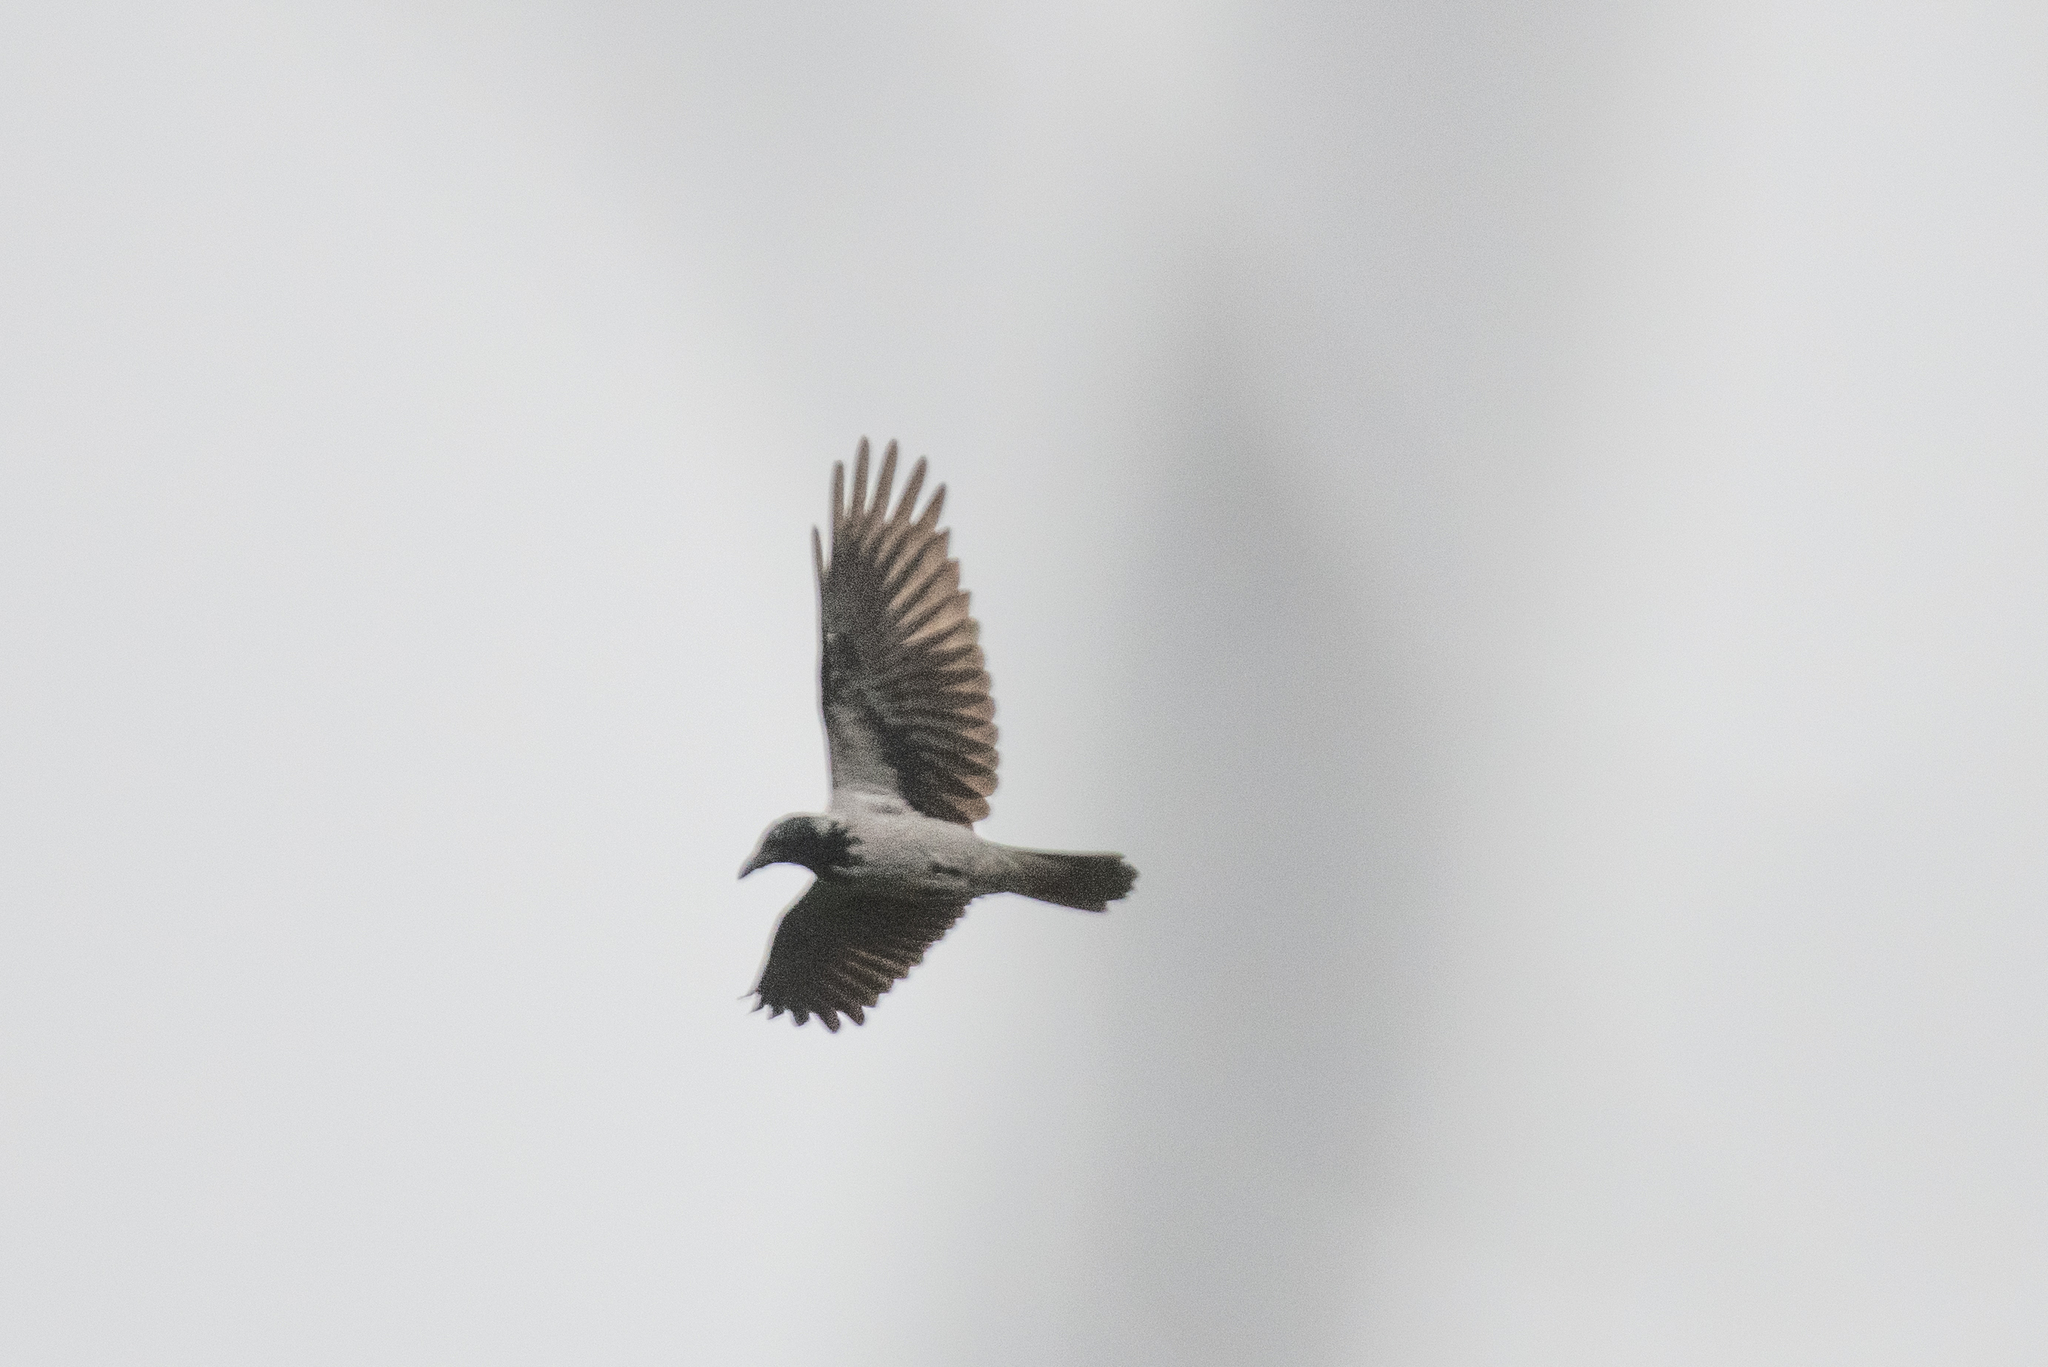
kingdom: Animalia
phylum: Chordata
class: Aves
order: Passeriformes
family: Corvidae
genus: Corvus
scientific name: Corvus cornix
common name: Hooded crow
